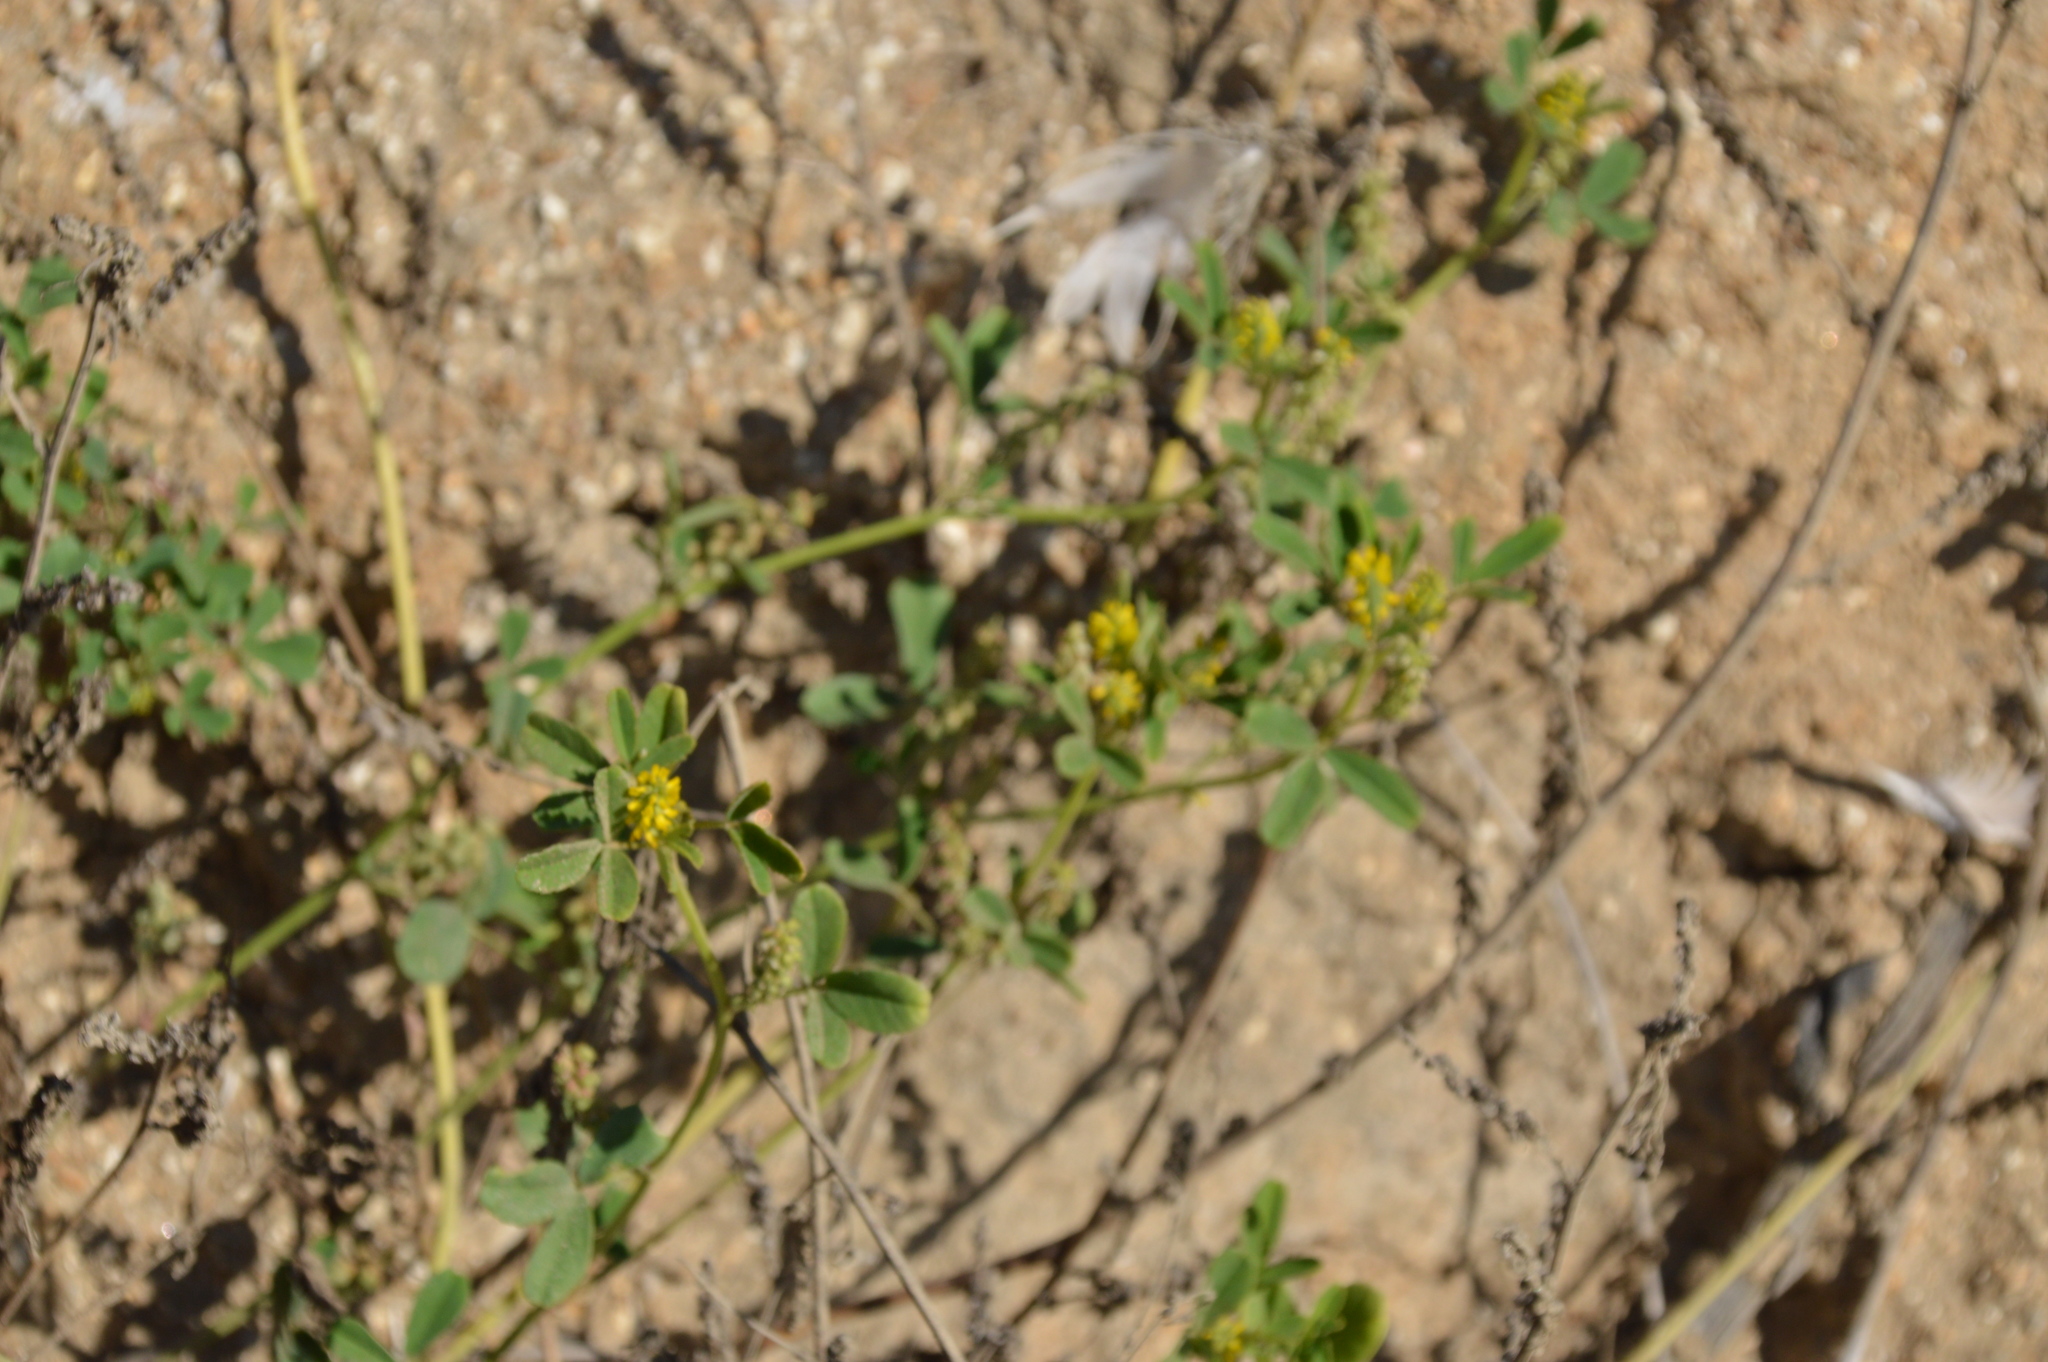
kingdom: Plantae
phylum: Tracheophyta
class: Magnoliopsida
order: Fabales
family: Fabaceae
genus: Melilotus
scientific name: Melilotus indicus
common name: Small melilot
